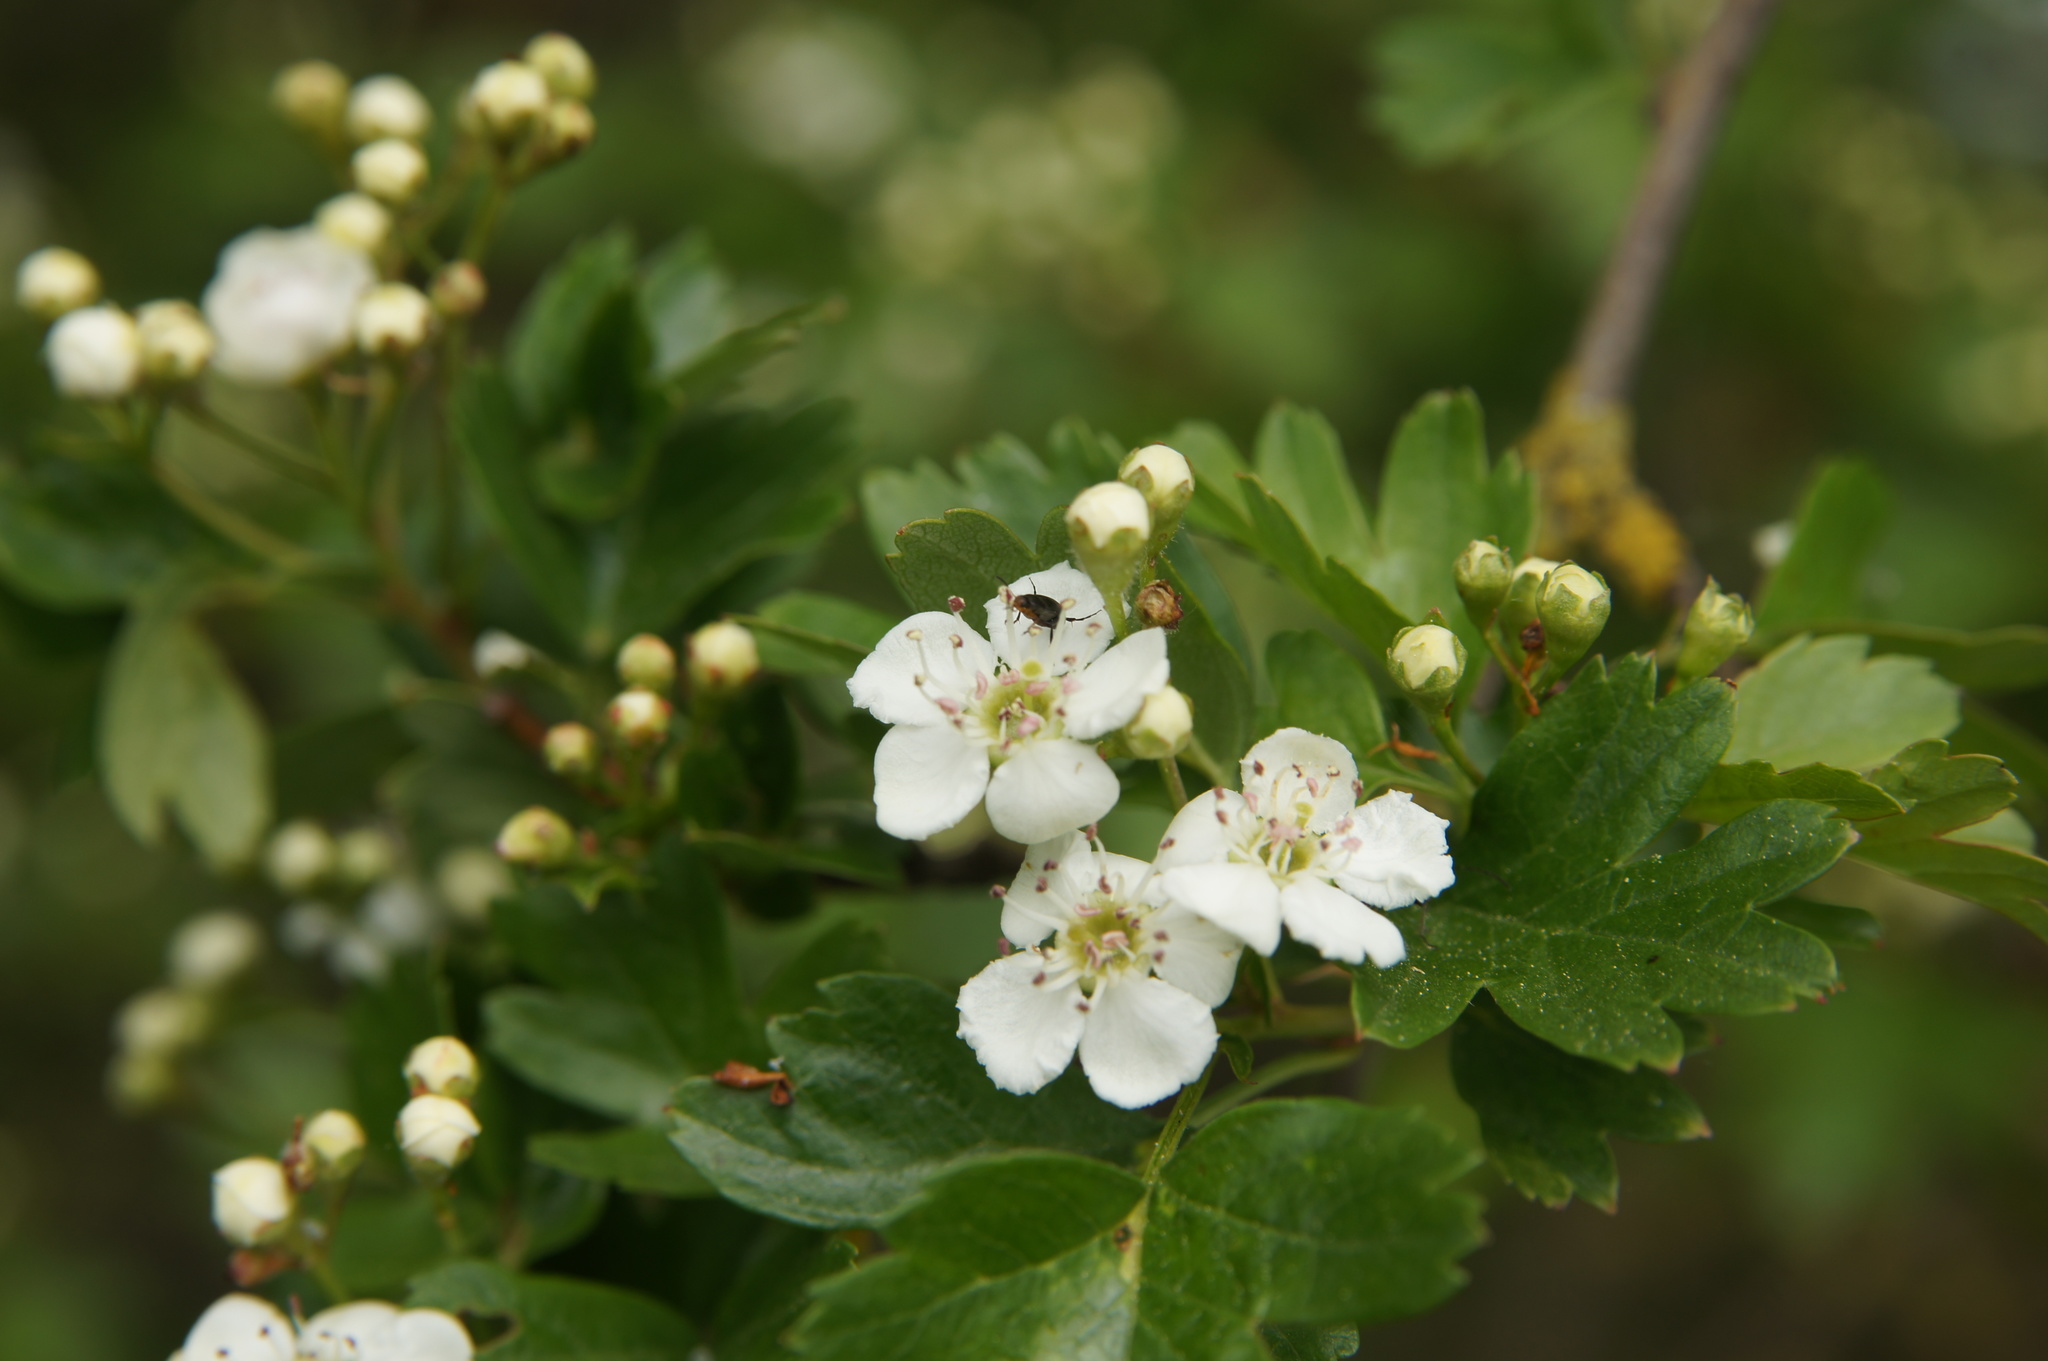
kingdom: Plantae
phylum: Tracheophyta
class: Magnoliopsida
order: Rosales
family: Rosaceae
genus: Crataegus
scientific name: Crataegus monogyna
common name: Hawthorn
